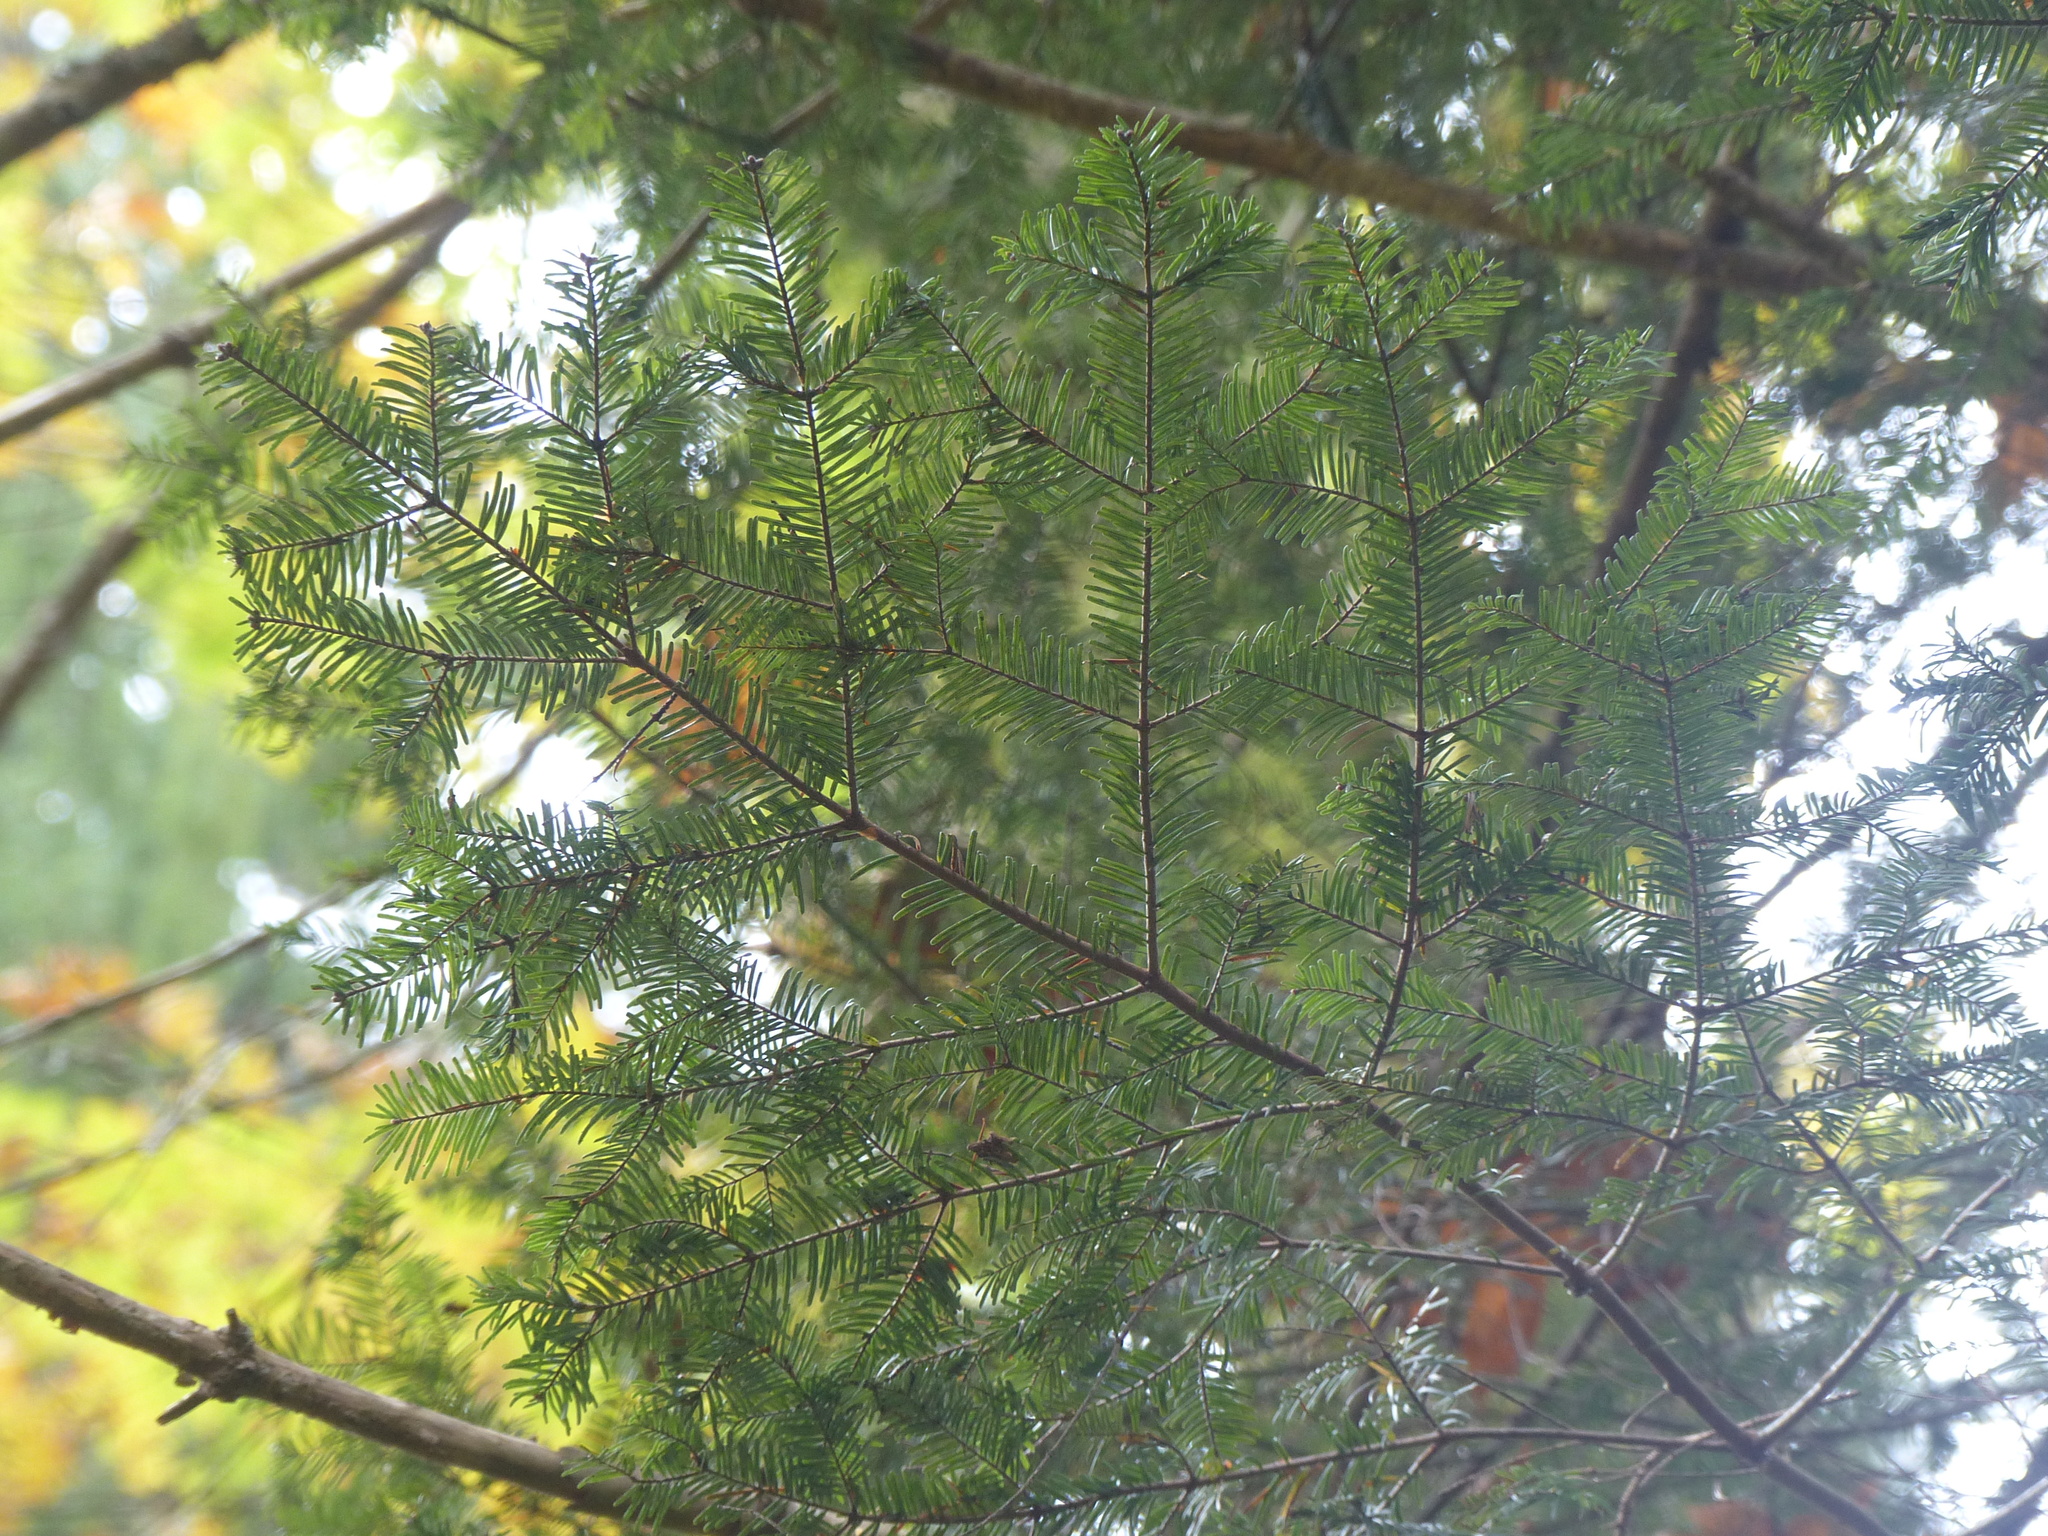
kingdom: Plantae
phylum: Tracheophyta
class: Pinopsida
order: Pinales
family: Pinaceae
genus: Abies
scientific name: Abies grandis
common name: Giant fir
